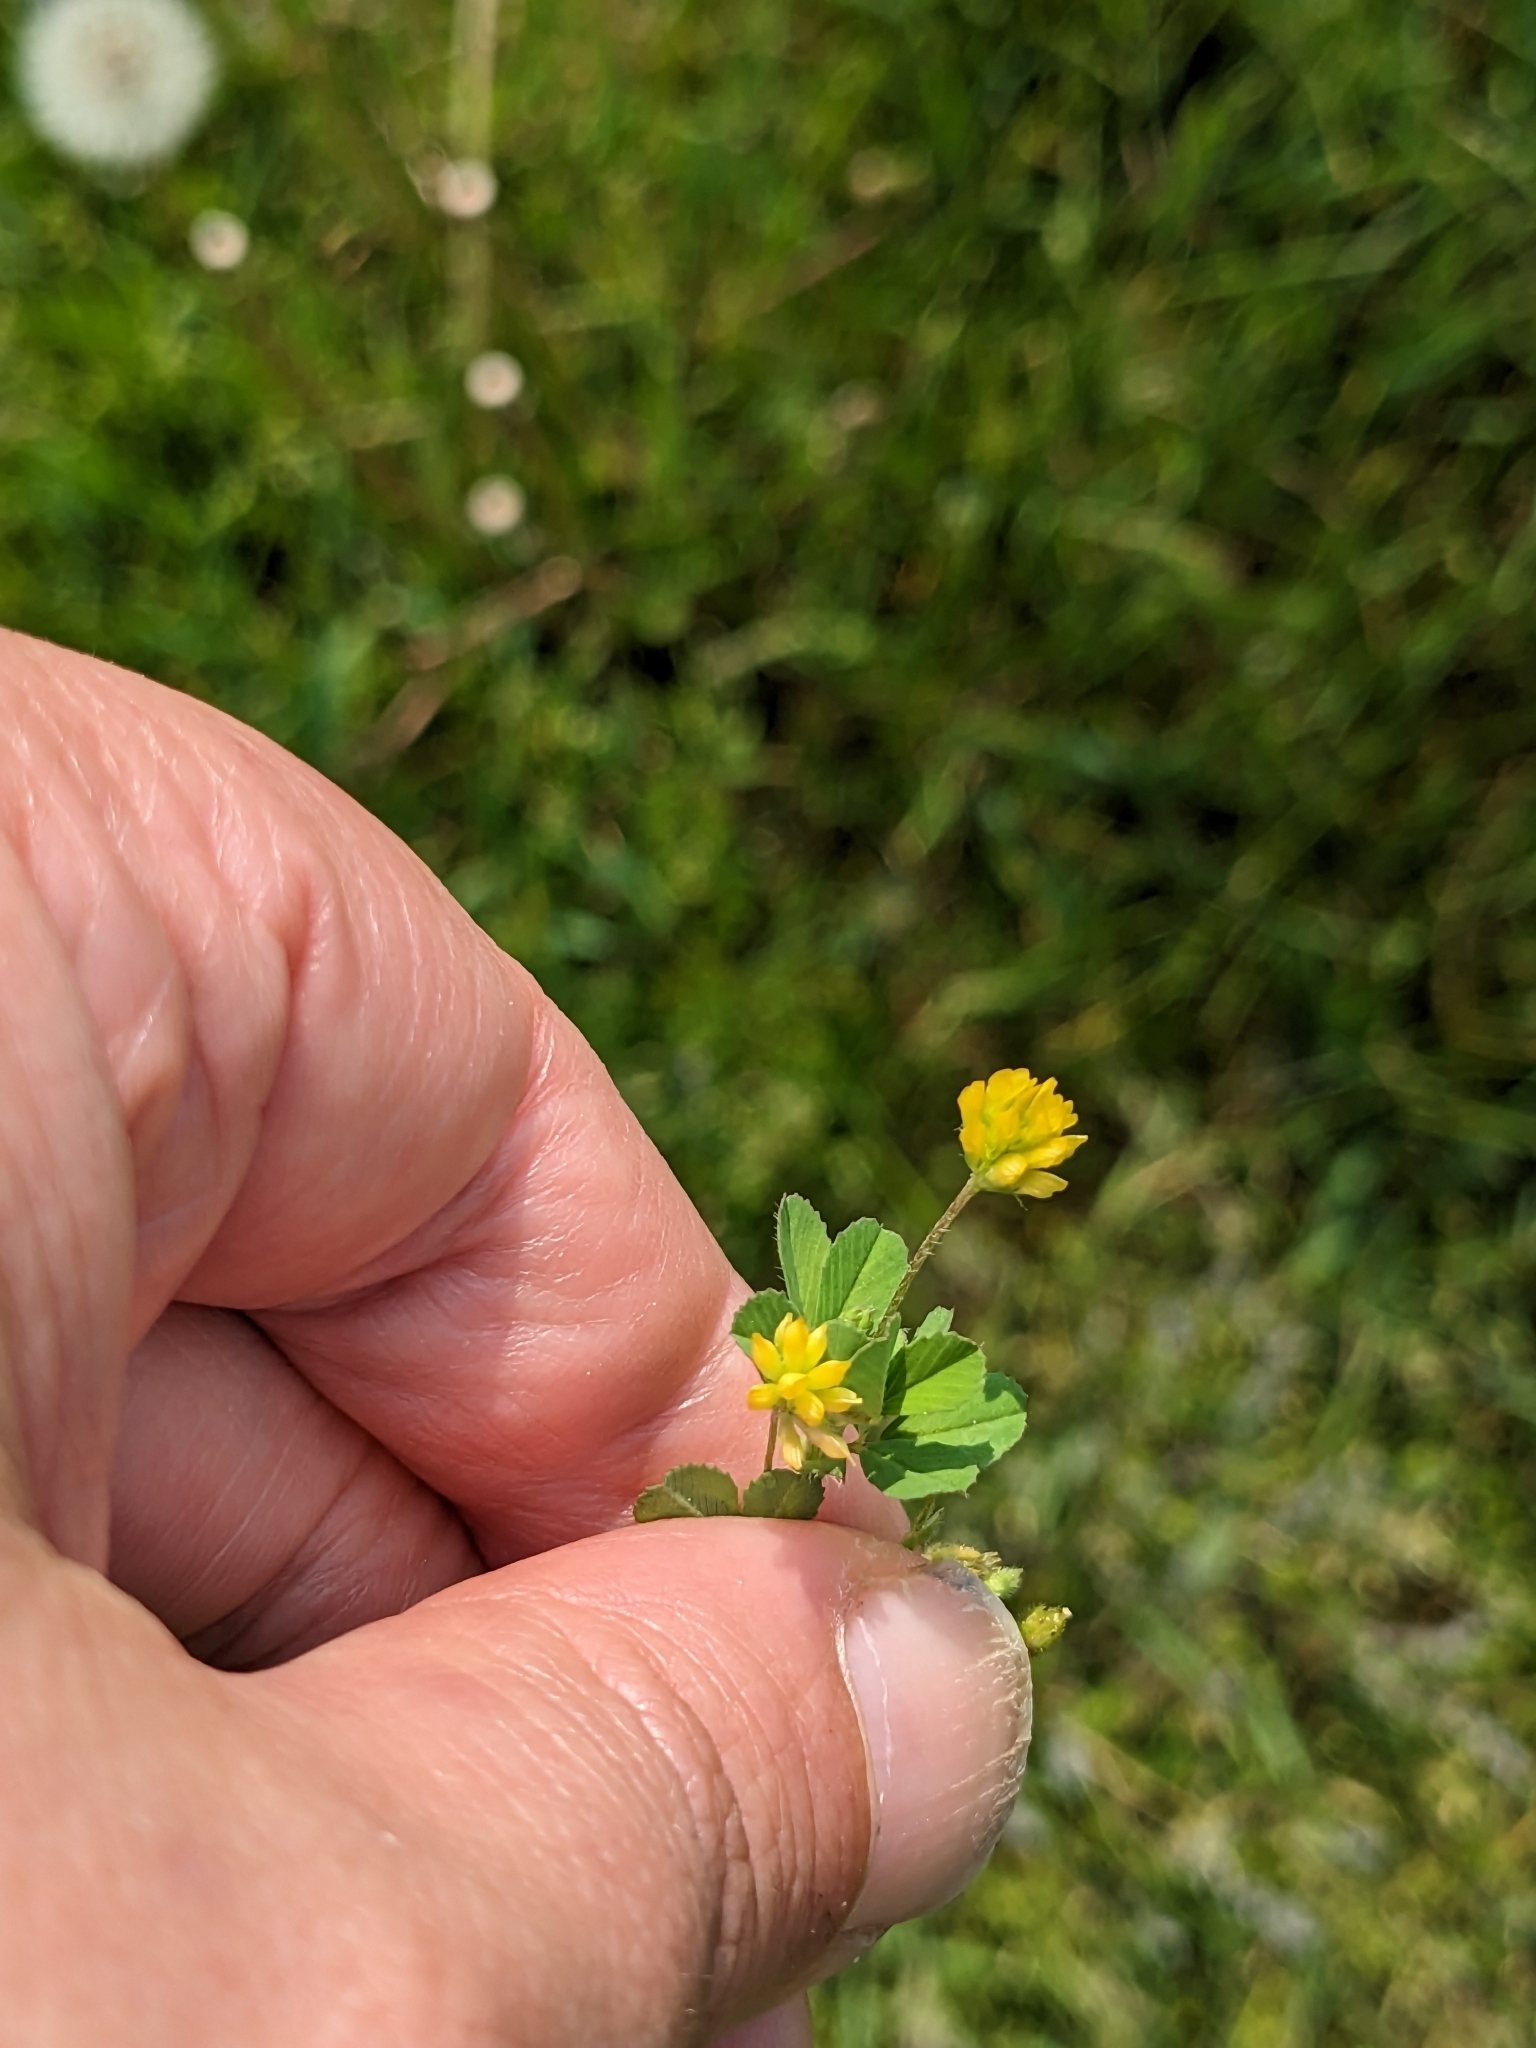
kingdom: Plantae
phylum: Tracheophyta
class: Magnoliopsida
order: Fabales
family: Fabaceae
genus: Trifolium
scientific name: Trifolium dubium
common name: Suckling clover
